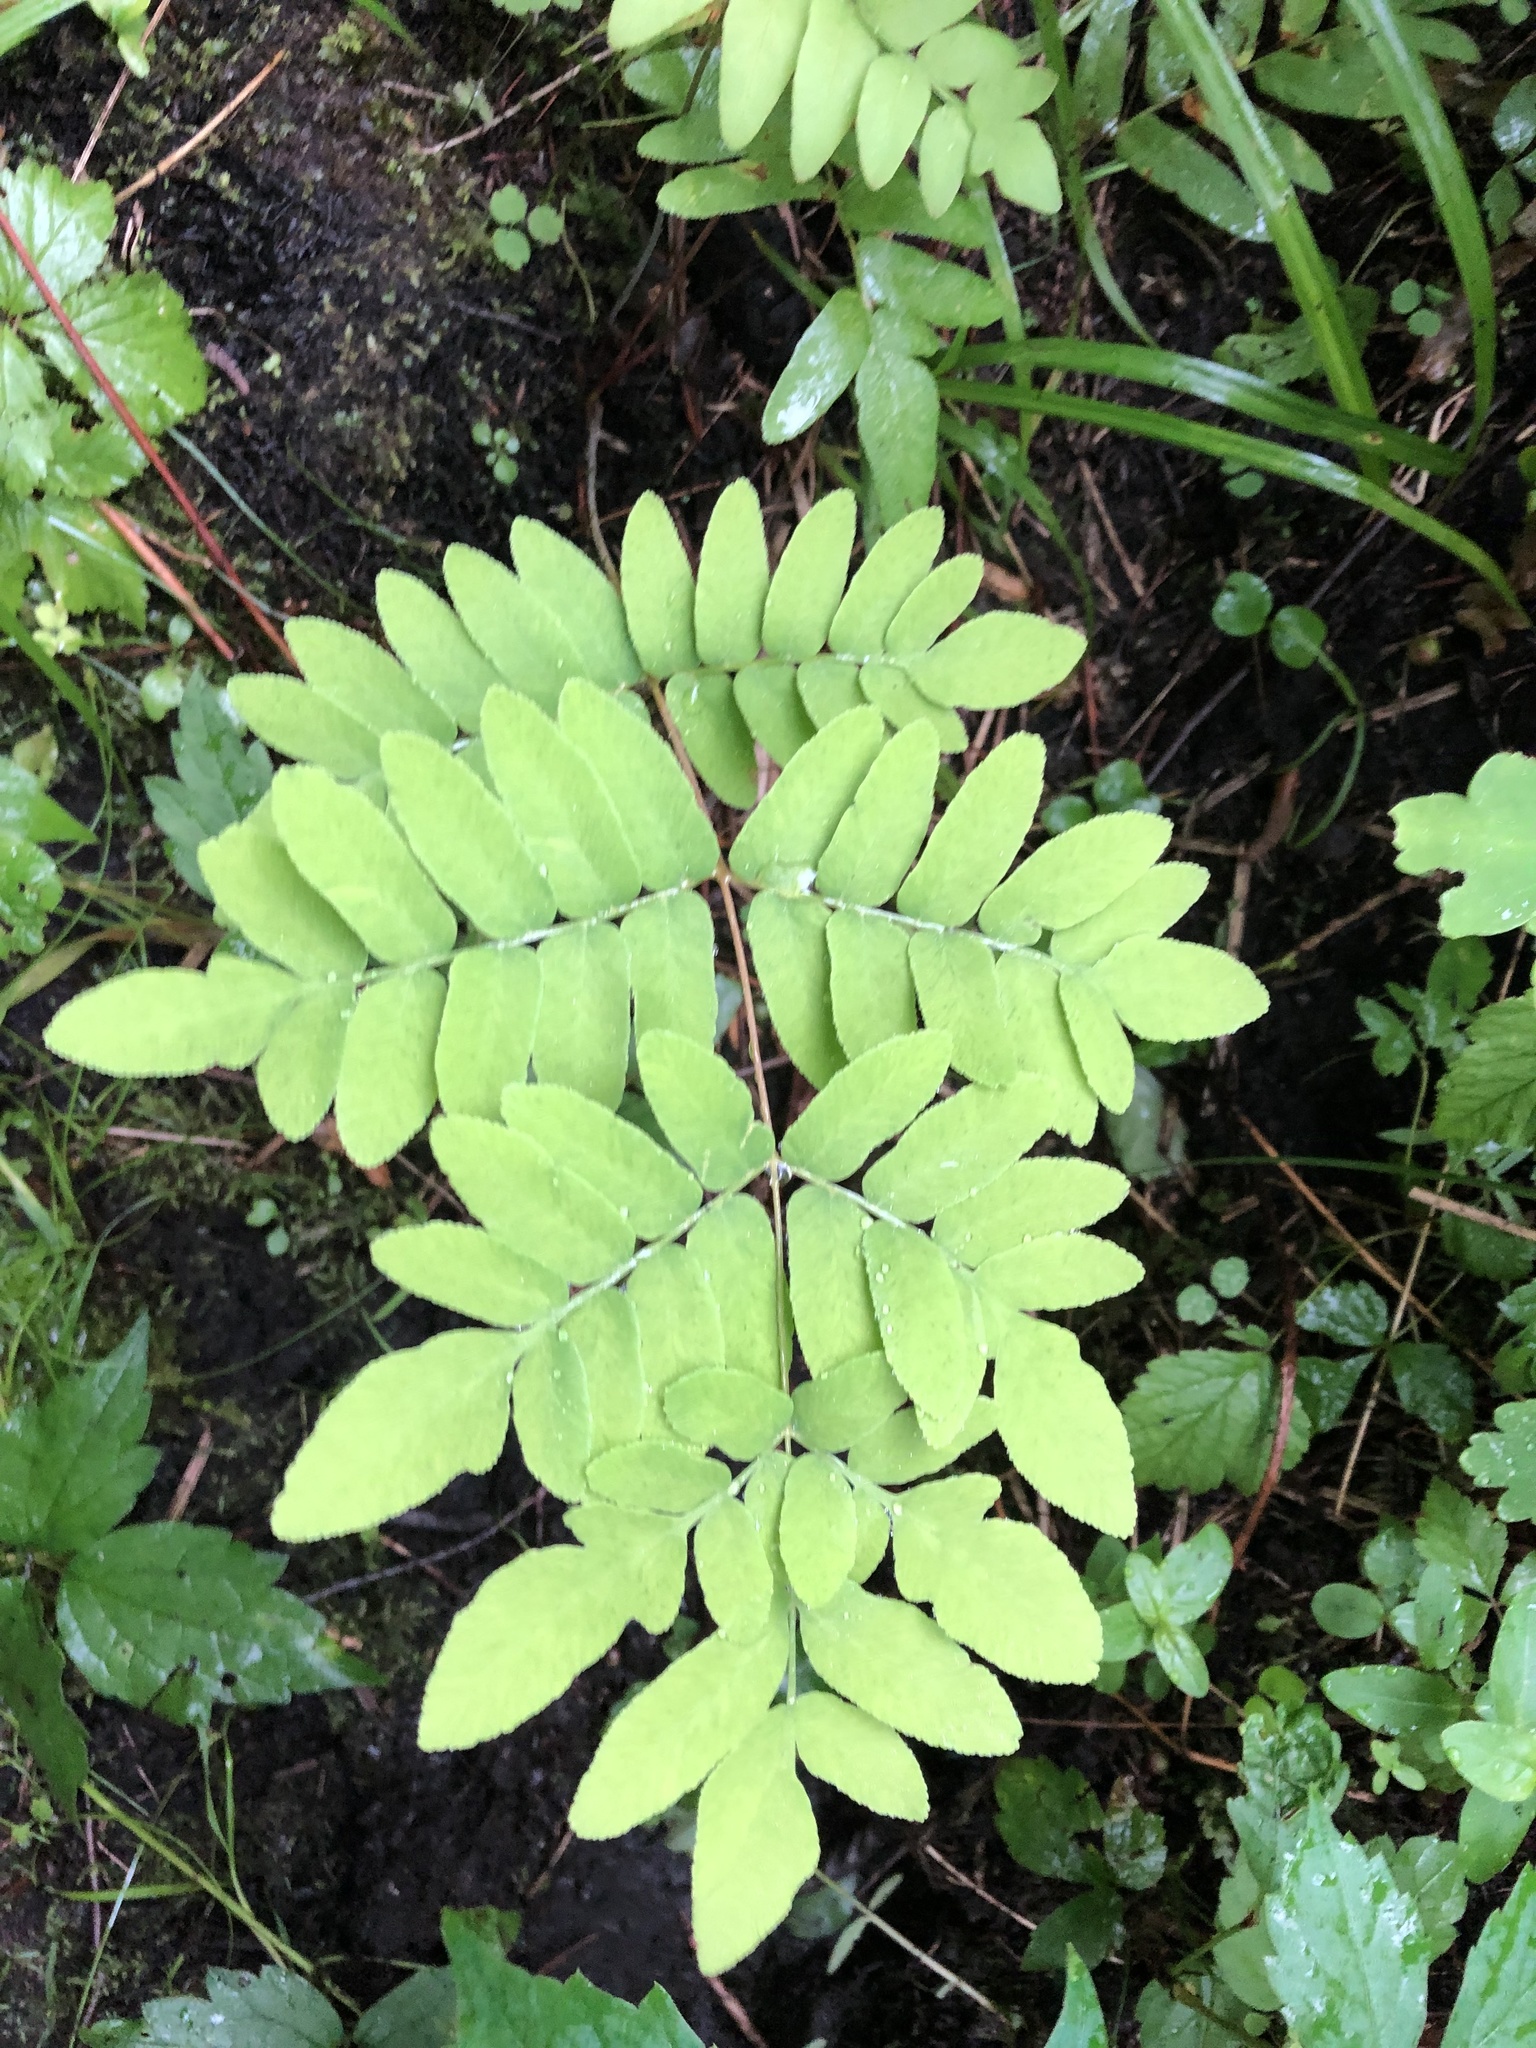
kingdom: Plantae
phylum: Tracheophyta
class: Polypodiopsida
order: Osmundales
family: Osmundaceae
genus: Osmunda
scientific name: Osmunda spectabilis
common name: American royal fern
